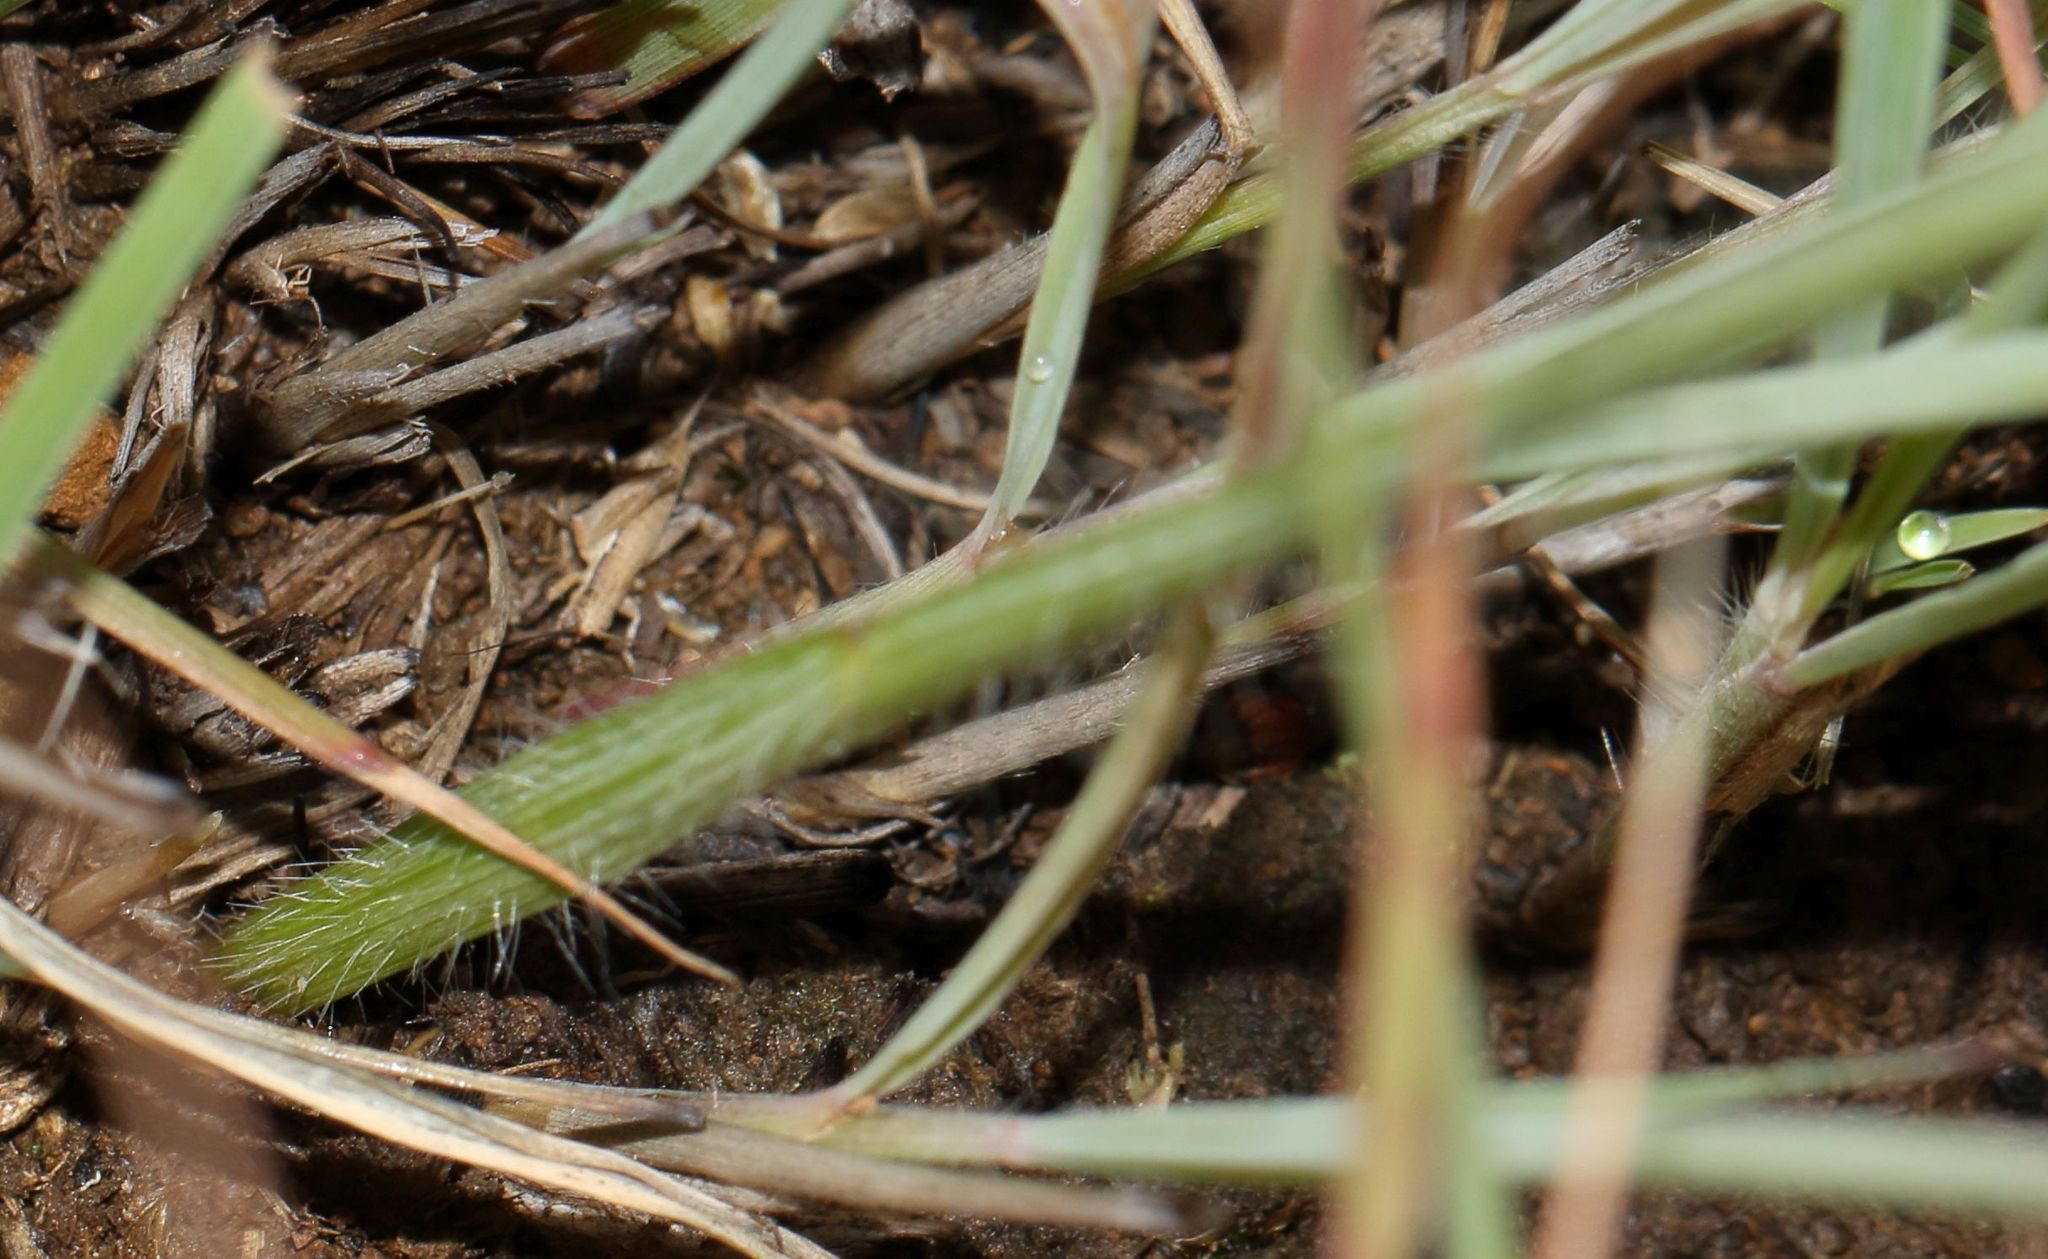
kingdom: Plantae
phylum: Tracheophyta
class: Liliopsida
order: Asparagales
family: Iridaceae
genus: Gladiolus
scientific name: Gladiolus woodii
